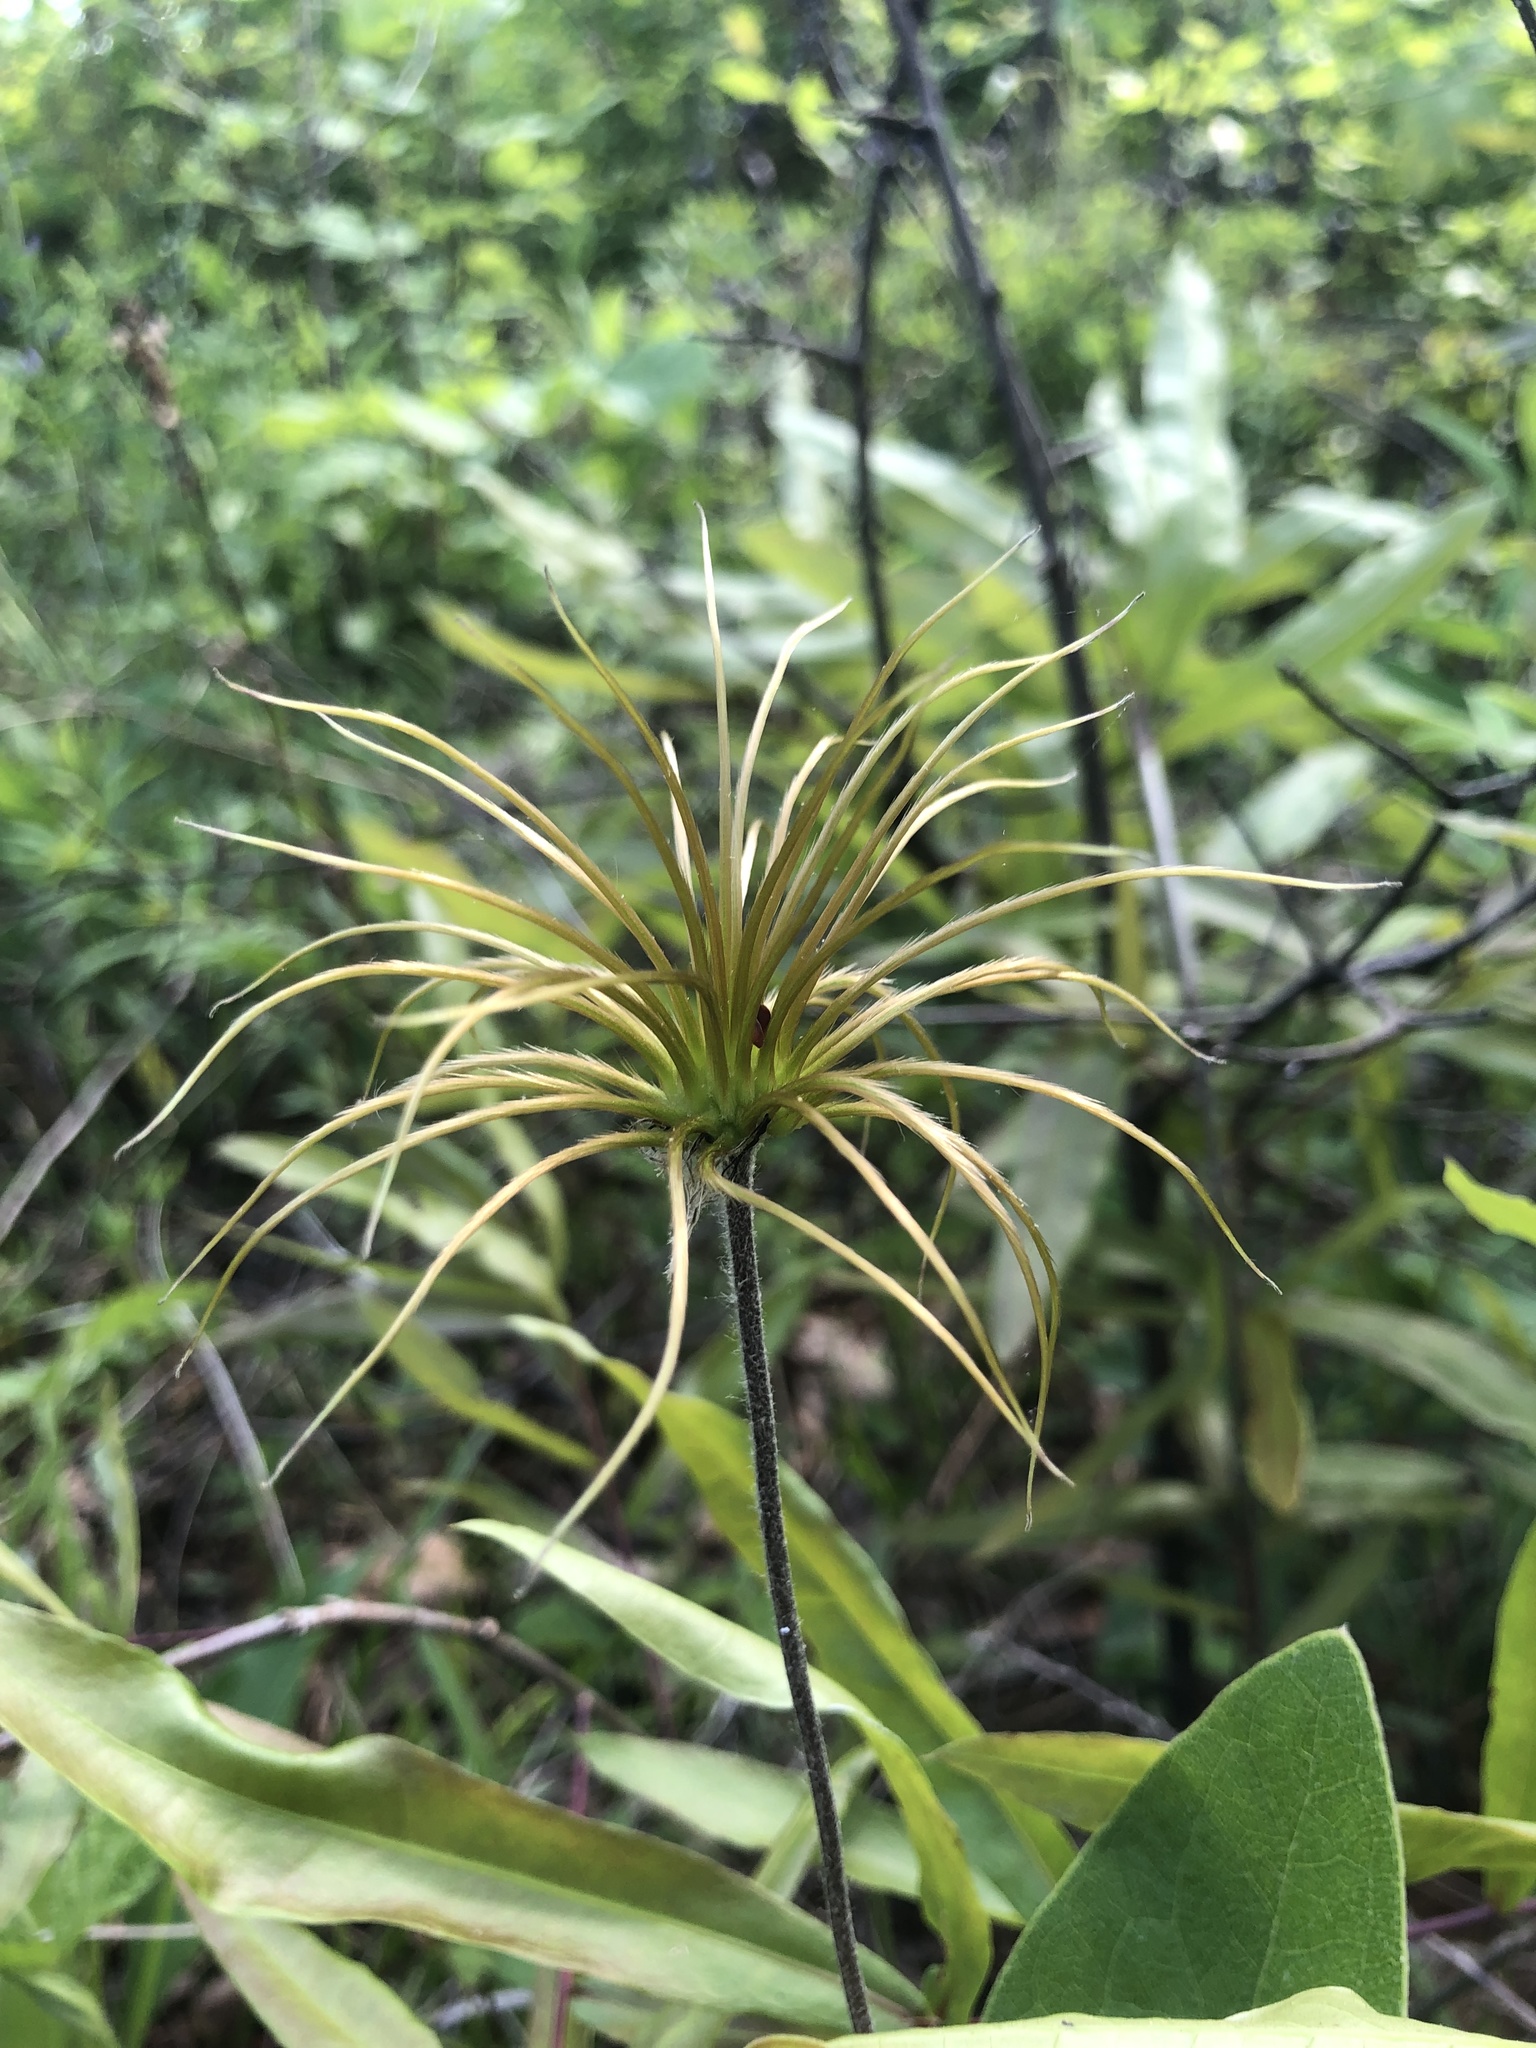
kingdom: Plantae
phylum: Tracheophyta
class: Magnoliopsida
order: Ranunculales
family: Ranunculaceae
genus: Clematis
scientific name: Clematis ochroleuca
